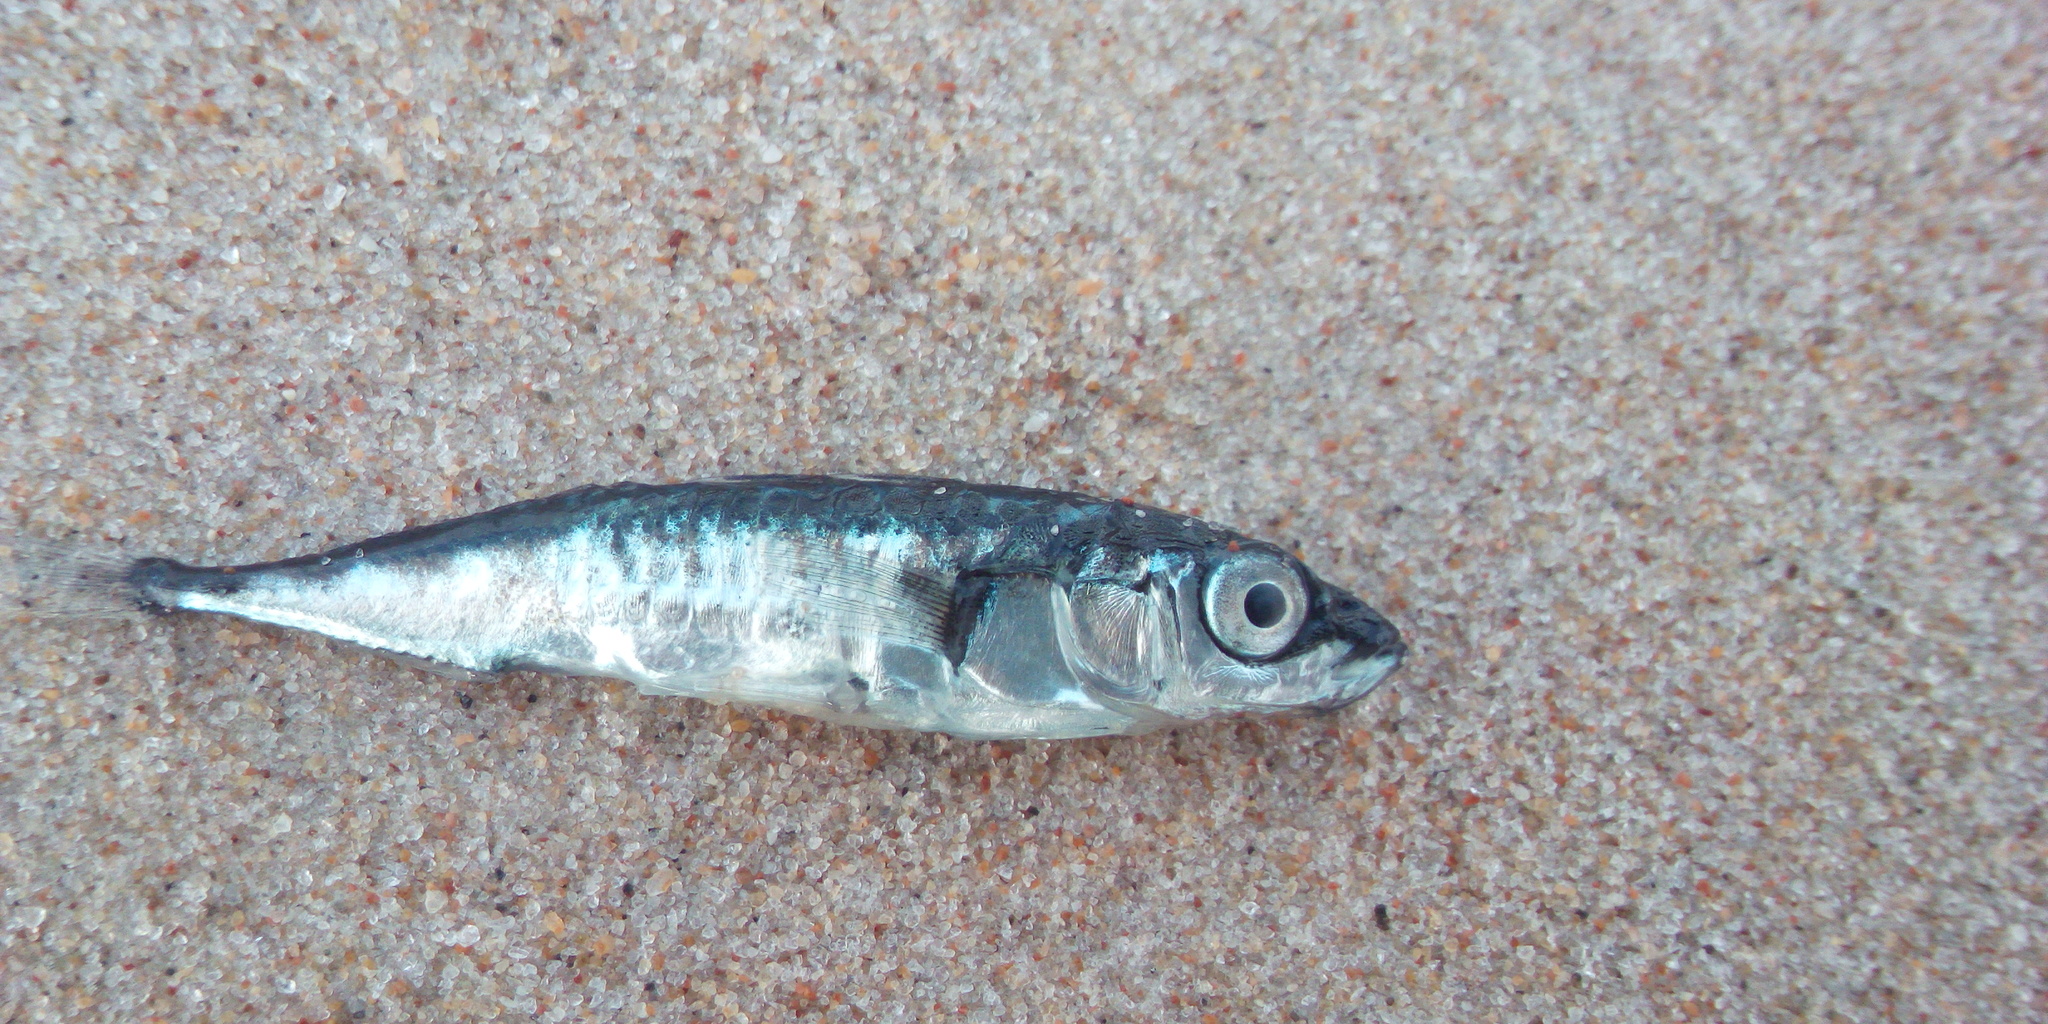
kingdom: Animalia
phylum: Chordata
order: Gasterosteiformes
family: Gasterosteidae
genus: Gasterosteus
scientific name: Gasterosteus aculeatus
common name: Three-spined stickleback
